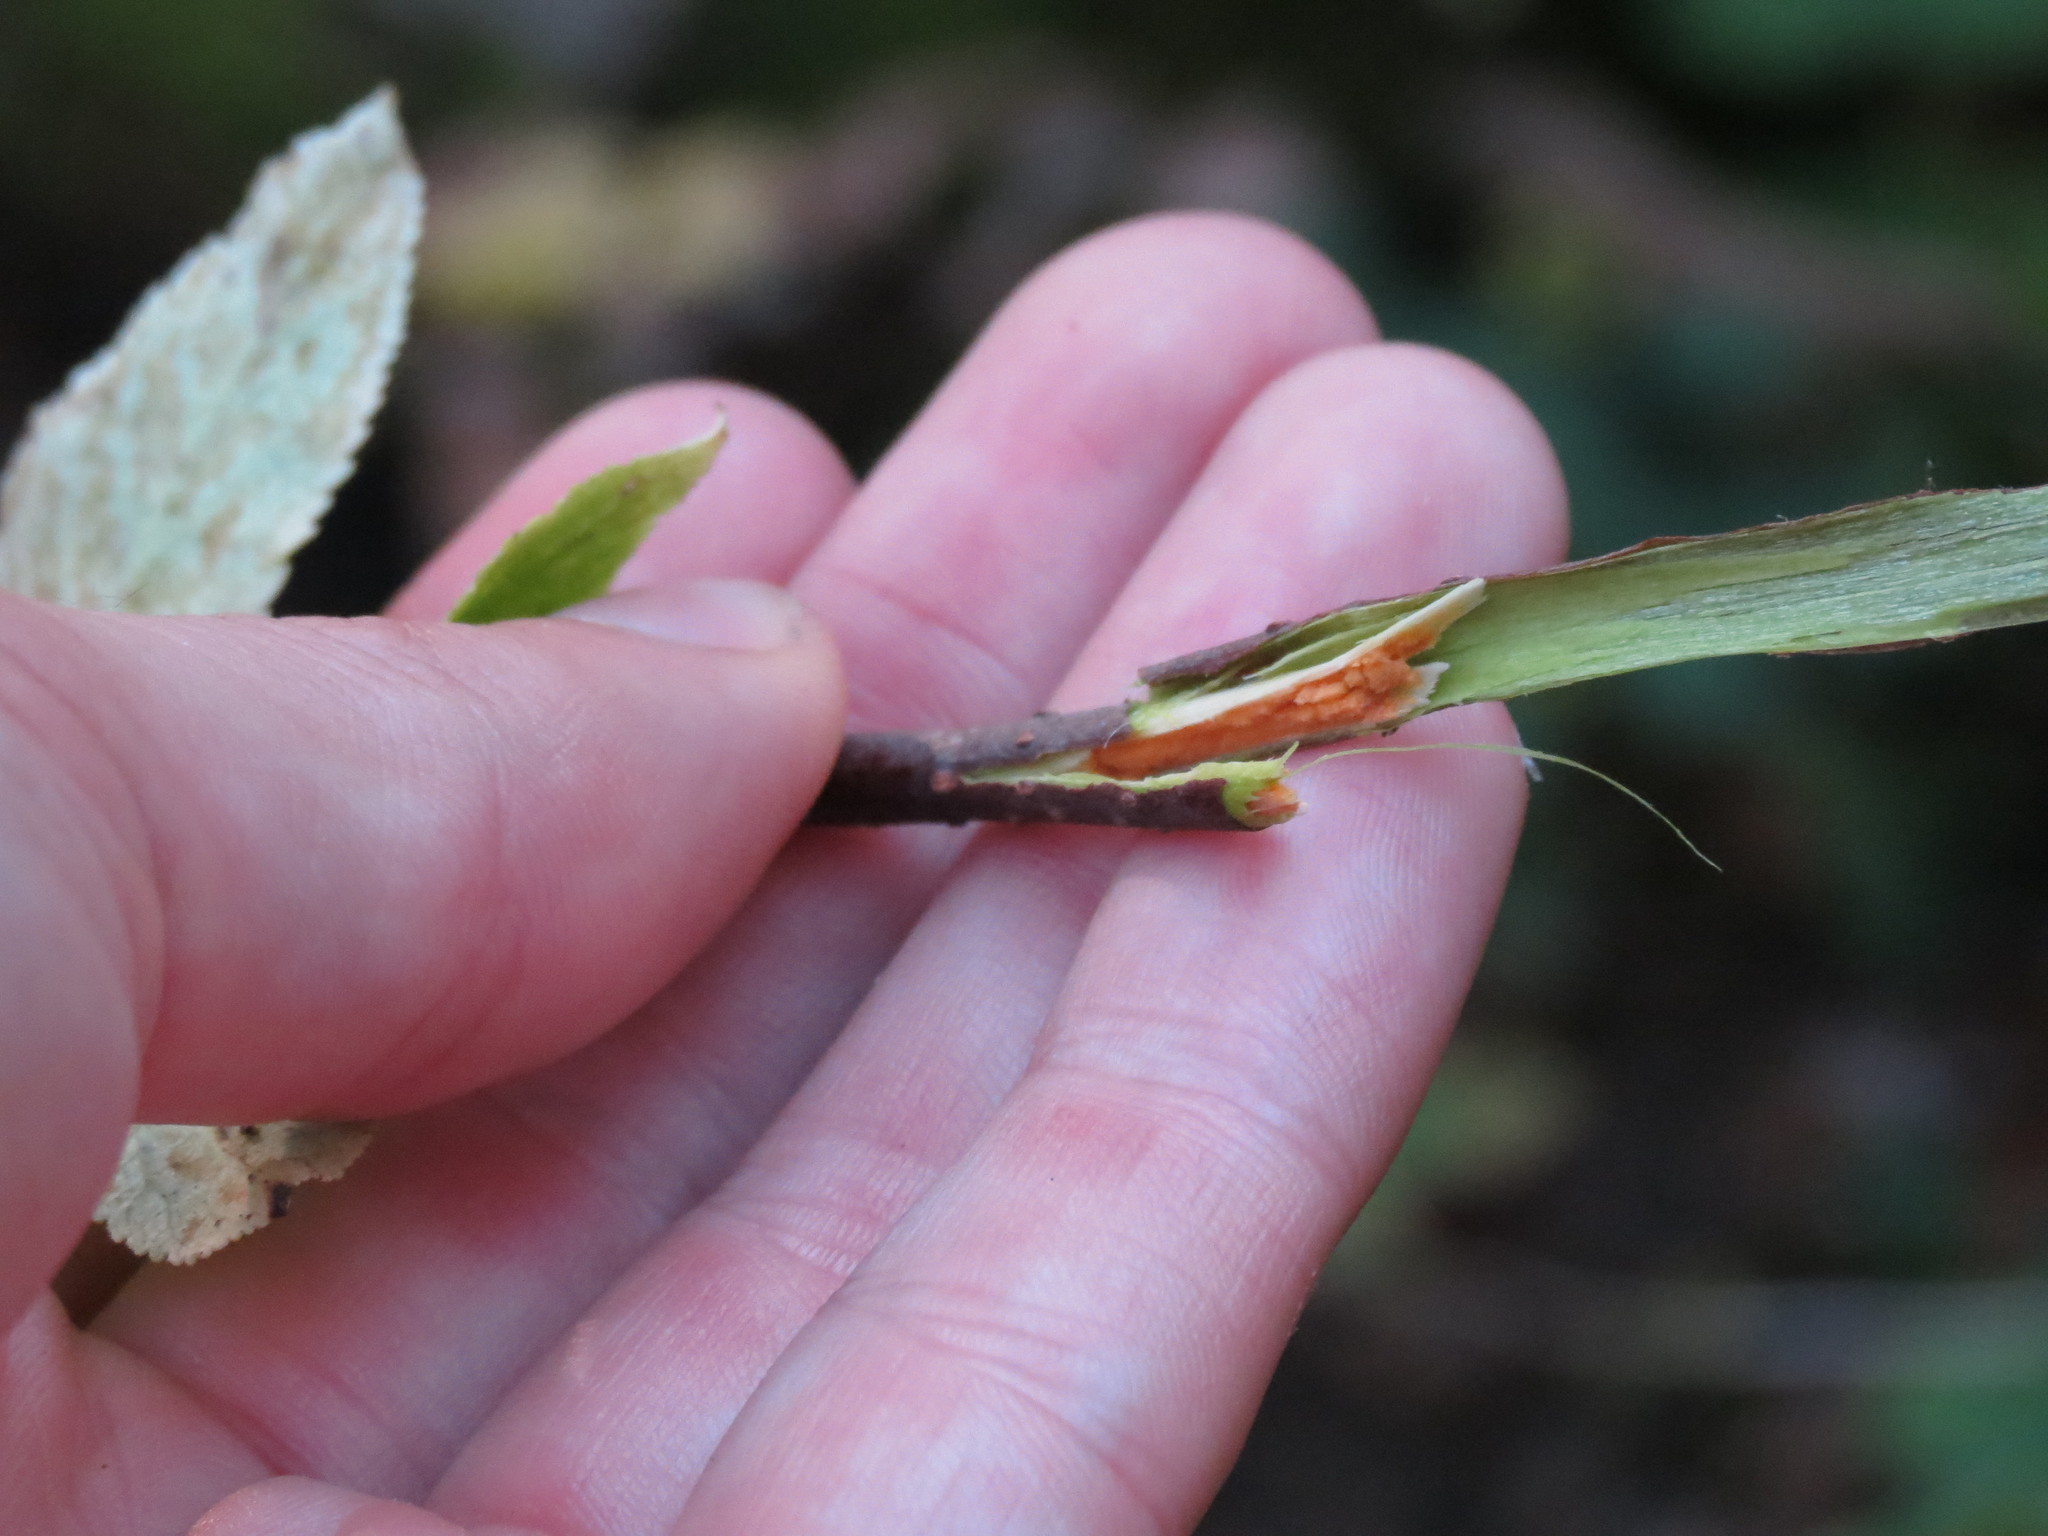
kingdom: Plantae
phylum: Tracheophyta
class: Magnoliopsida
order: Dipsacales
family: Viburnaceae
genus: Sambucus
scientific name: Sambucus racemosa
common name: Red-berried elder
